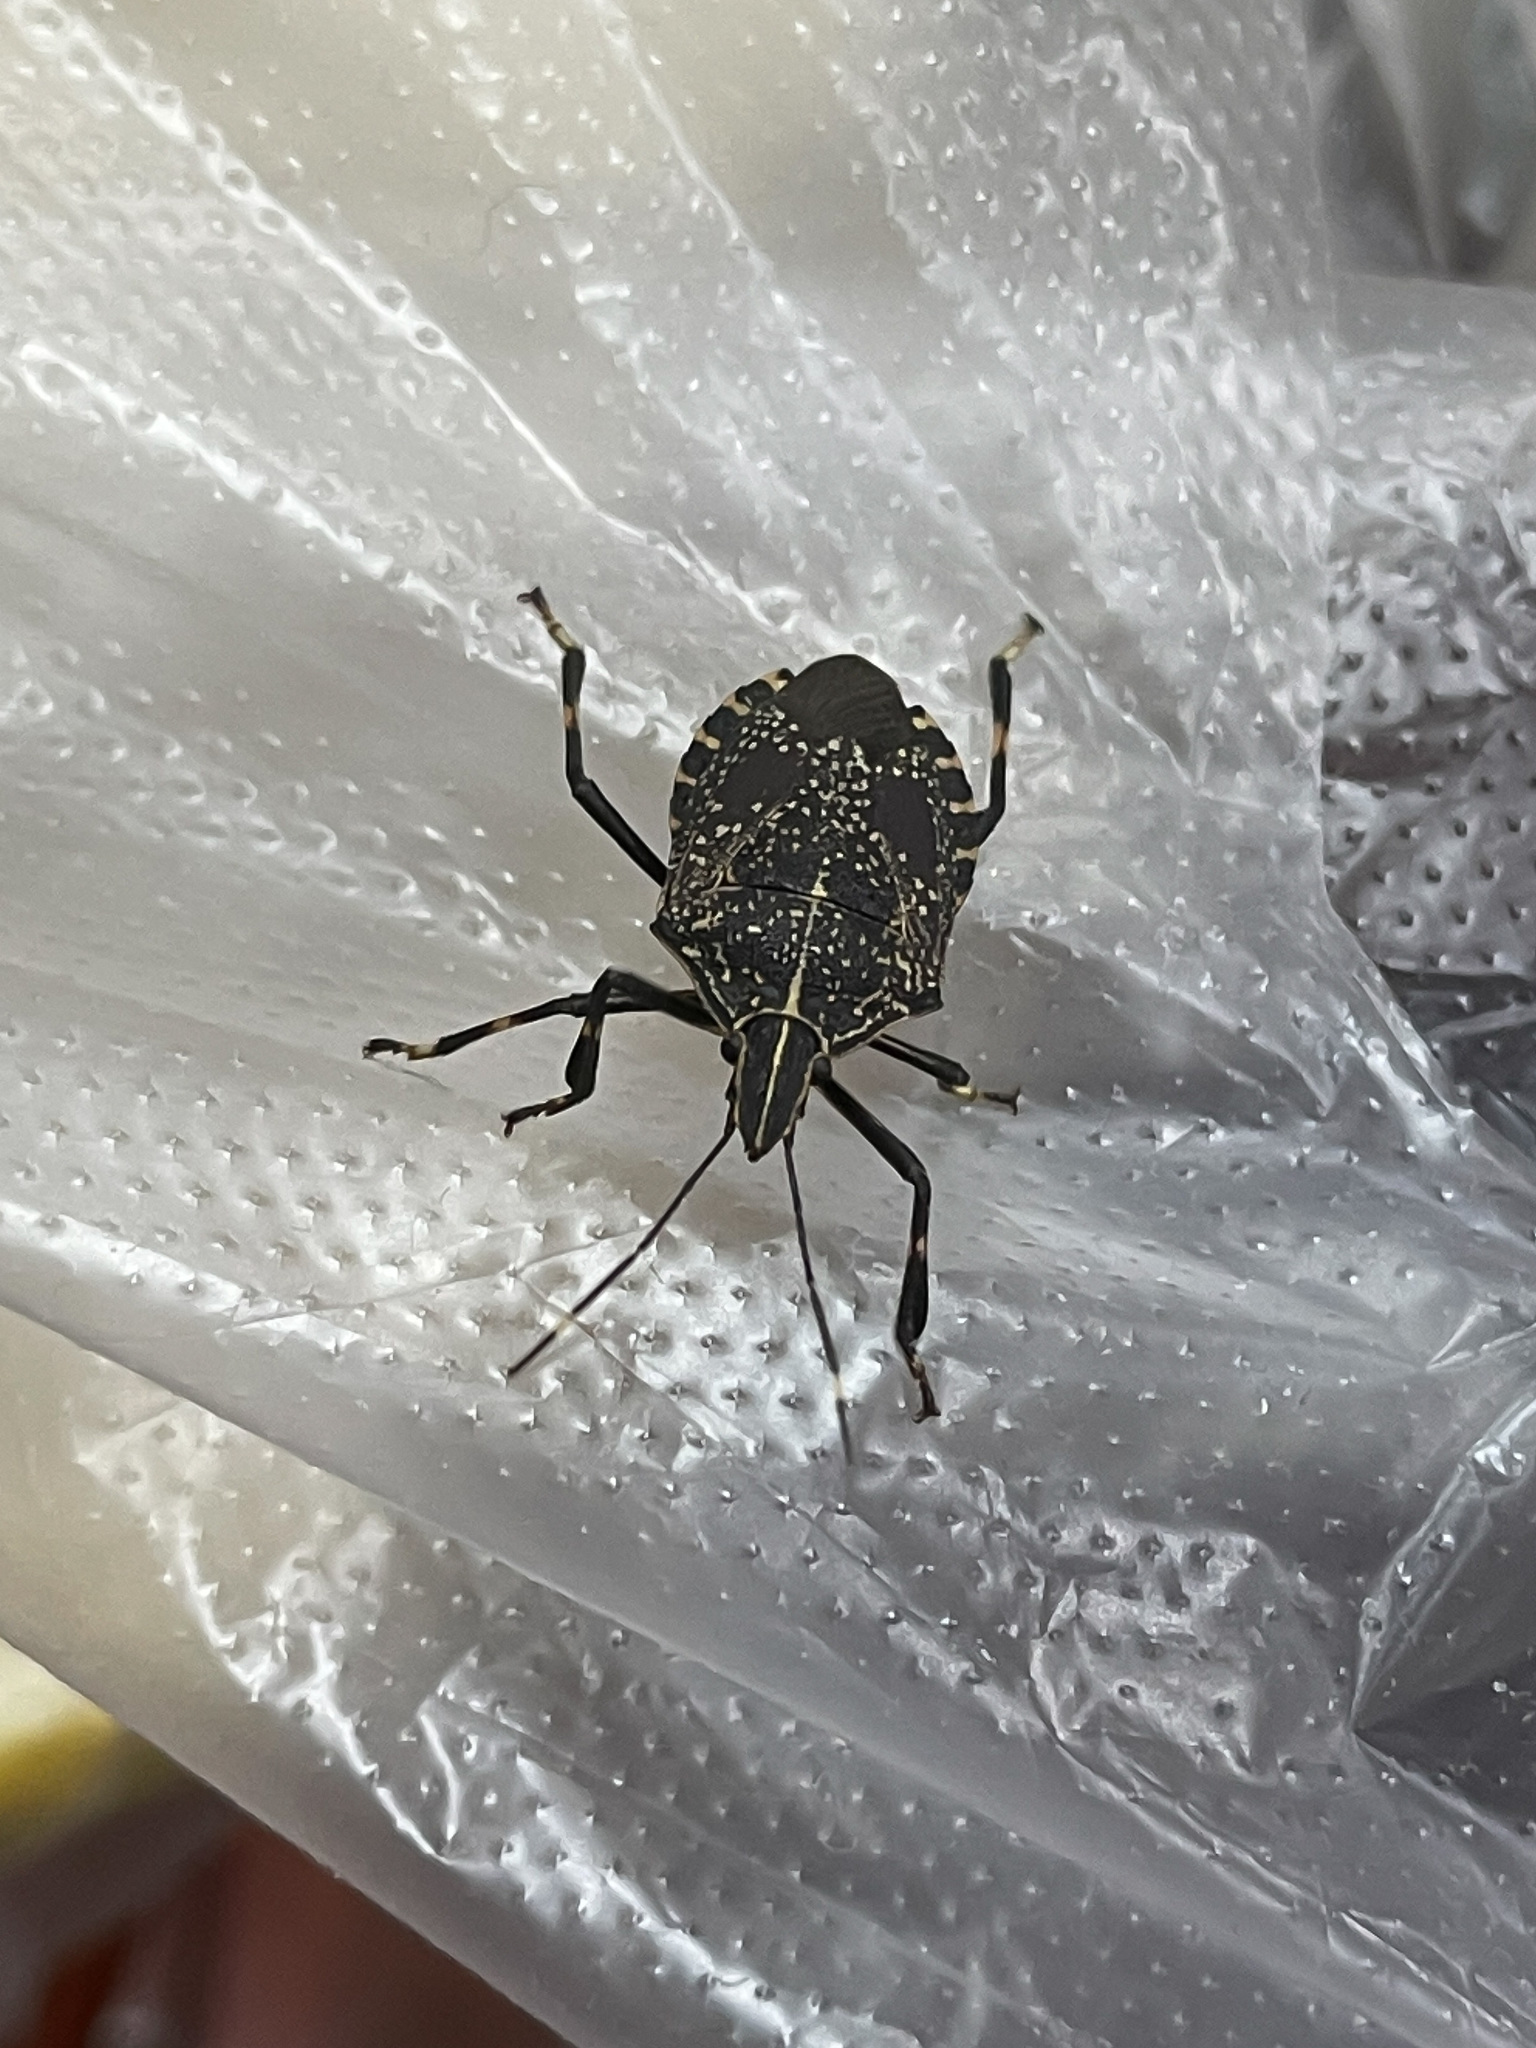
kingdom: Animalia
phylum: Arthropoda
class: Insecta
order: Hemiptera
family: Pentatomidae
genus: Erthesina
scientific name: Erthesina fullo
